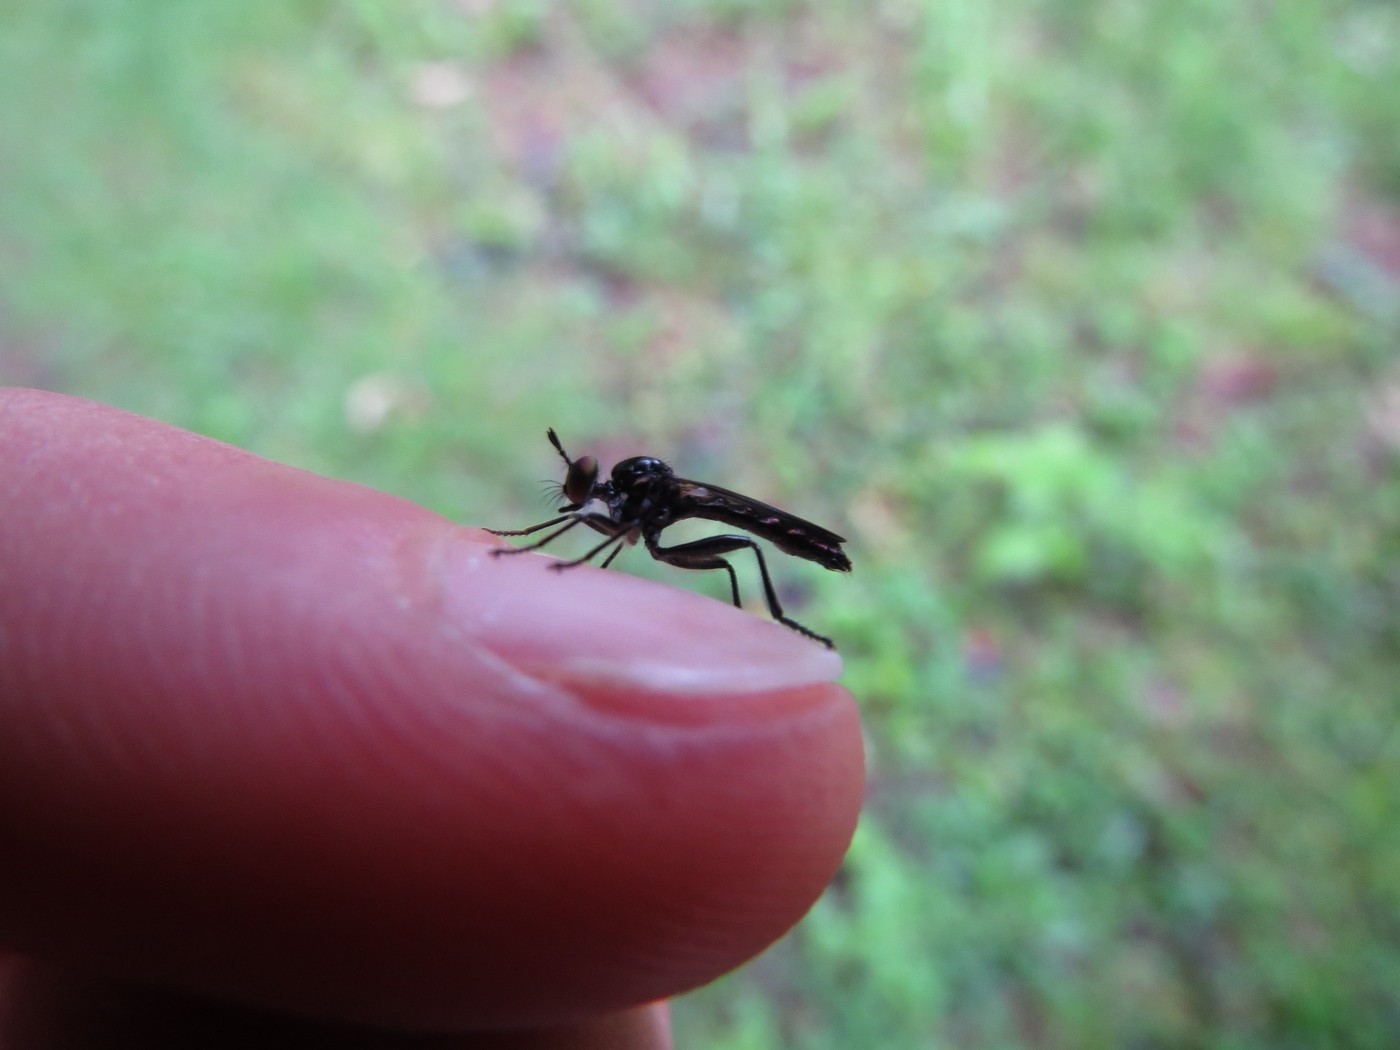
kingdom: Animalia
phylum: Arthropoda
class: Insecta
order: Diptera
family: Asilidae
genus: Eudioctria
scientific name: Eudioctria albius
